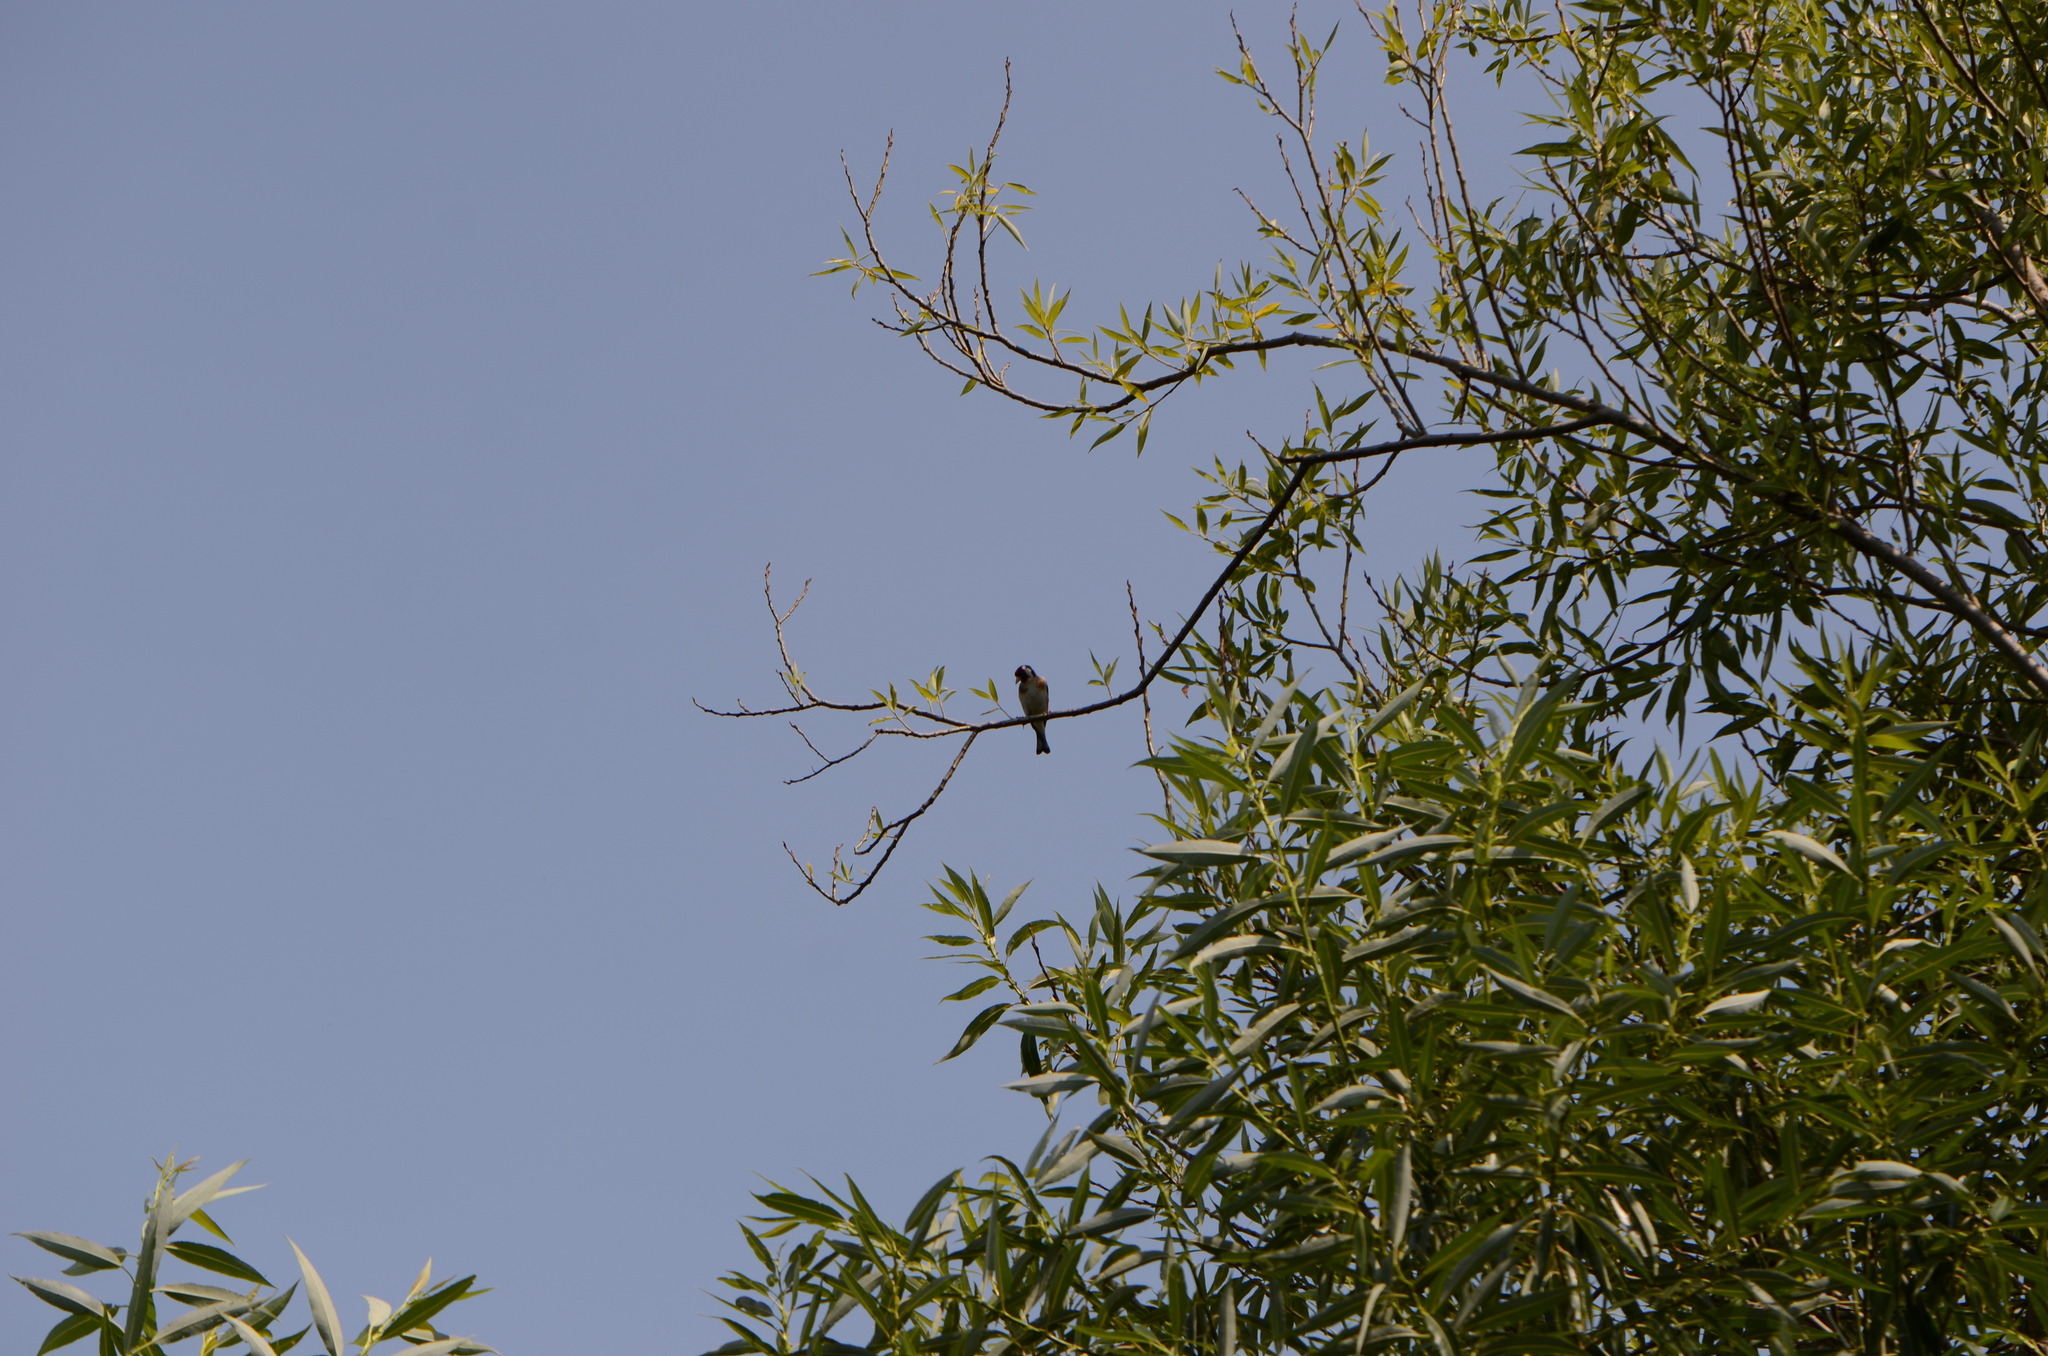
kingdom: Animalia
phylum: Chordata
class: Aves
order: Passeriformes
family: Fringillidae
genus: Carduelis
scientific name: Carduelis carduelis
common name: European goldfinch
